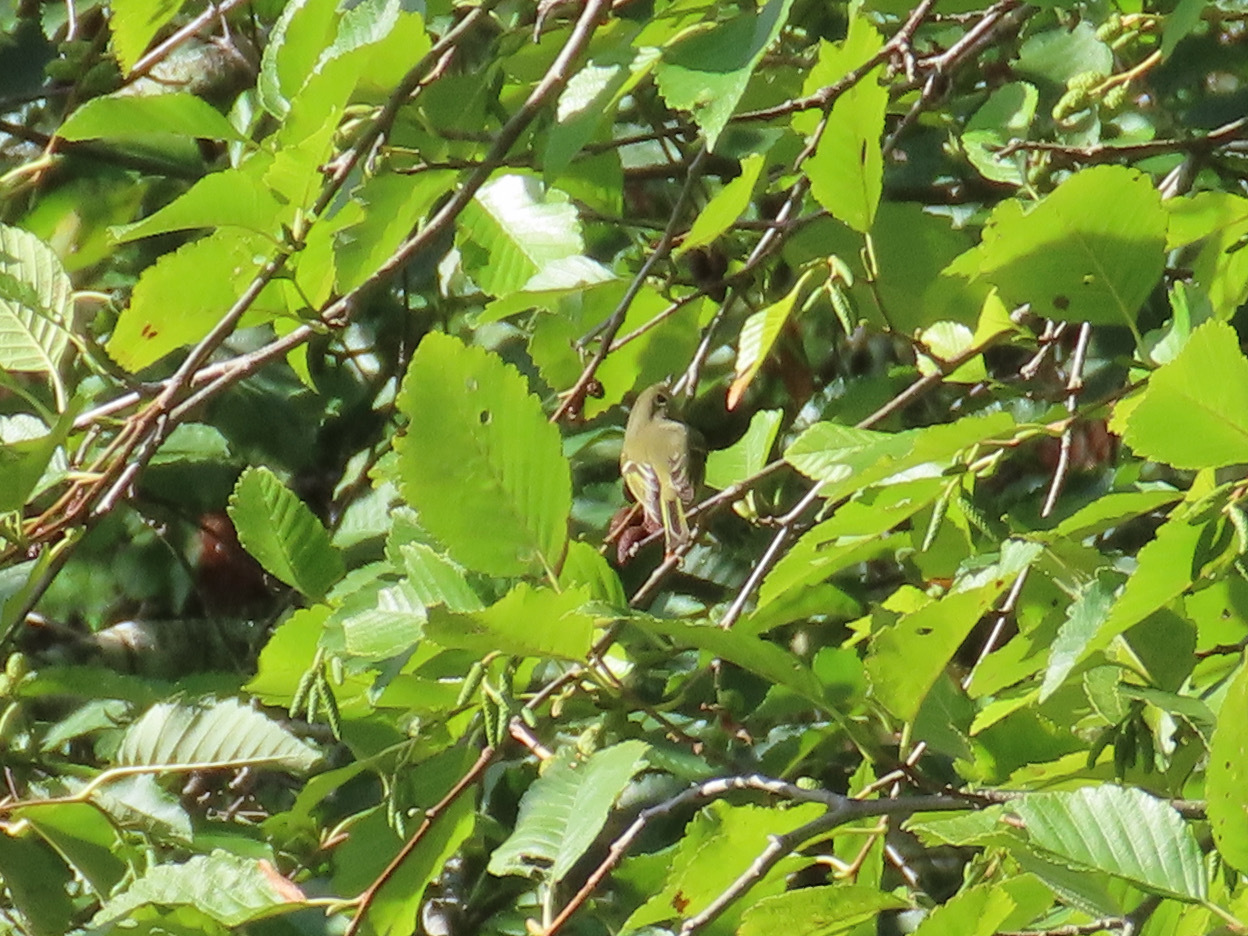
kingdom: Animalia
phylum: Chordata
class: Aves
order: Passeriformes
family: Regulidae
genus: Regulus
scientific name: Regulus calendula
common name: Ruby-crowned kinglet
